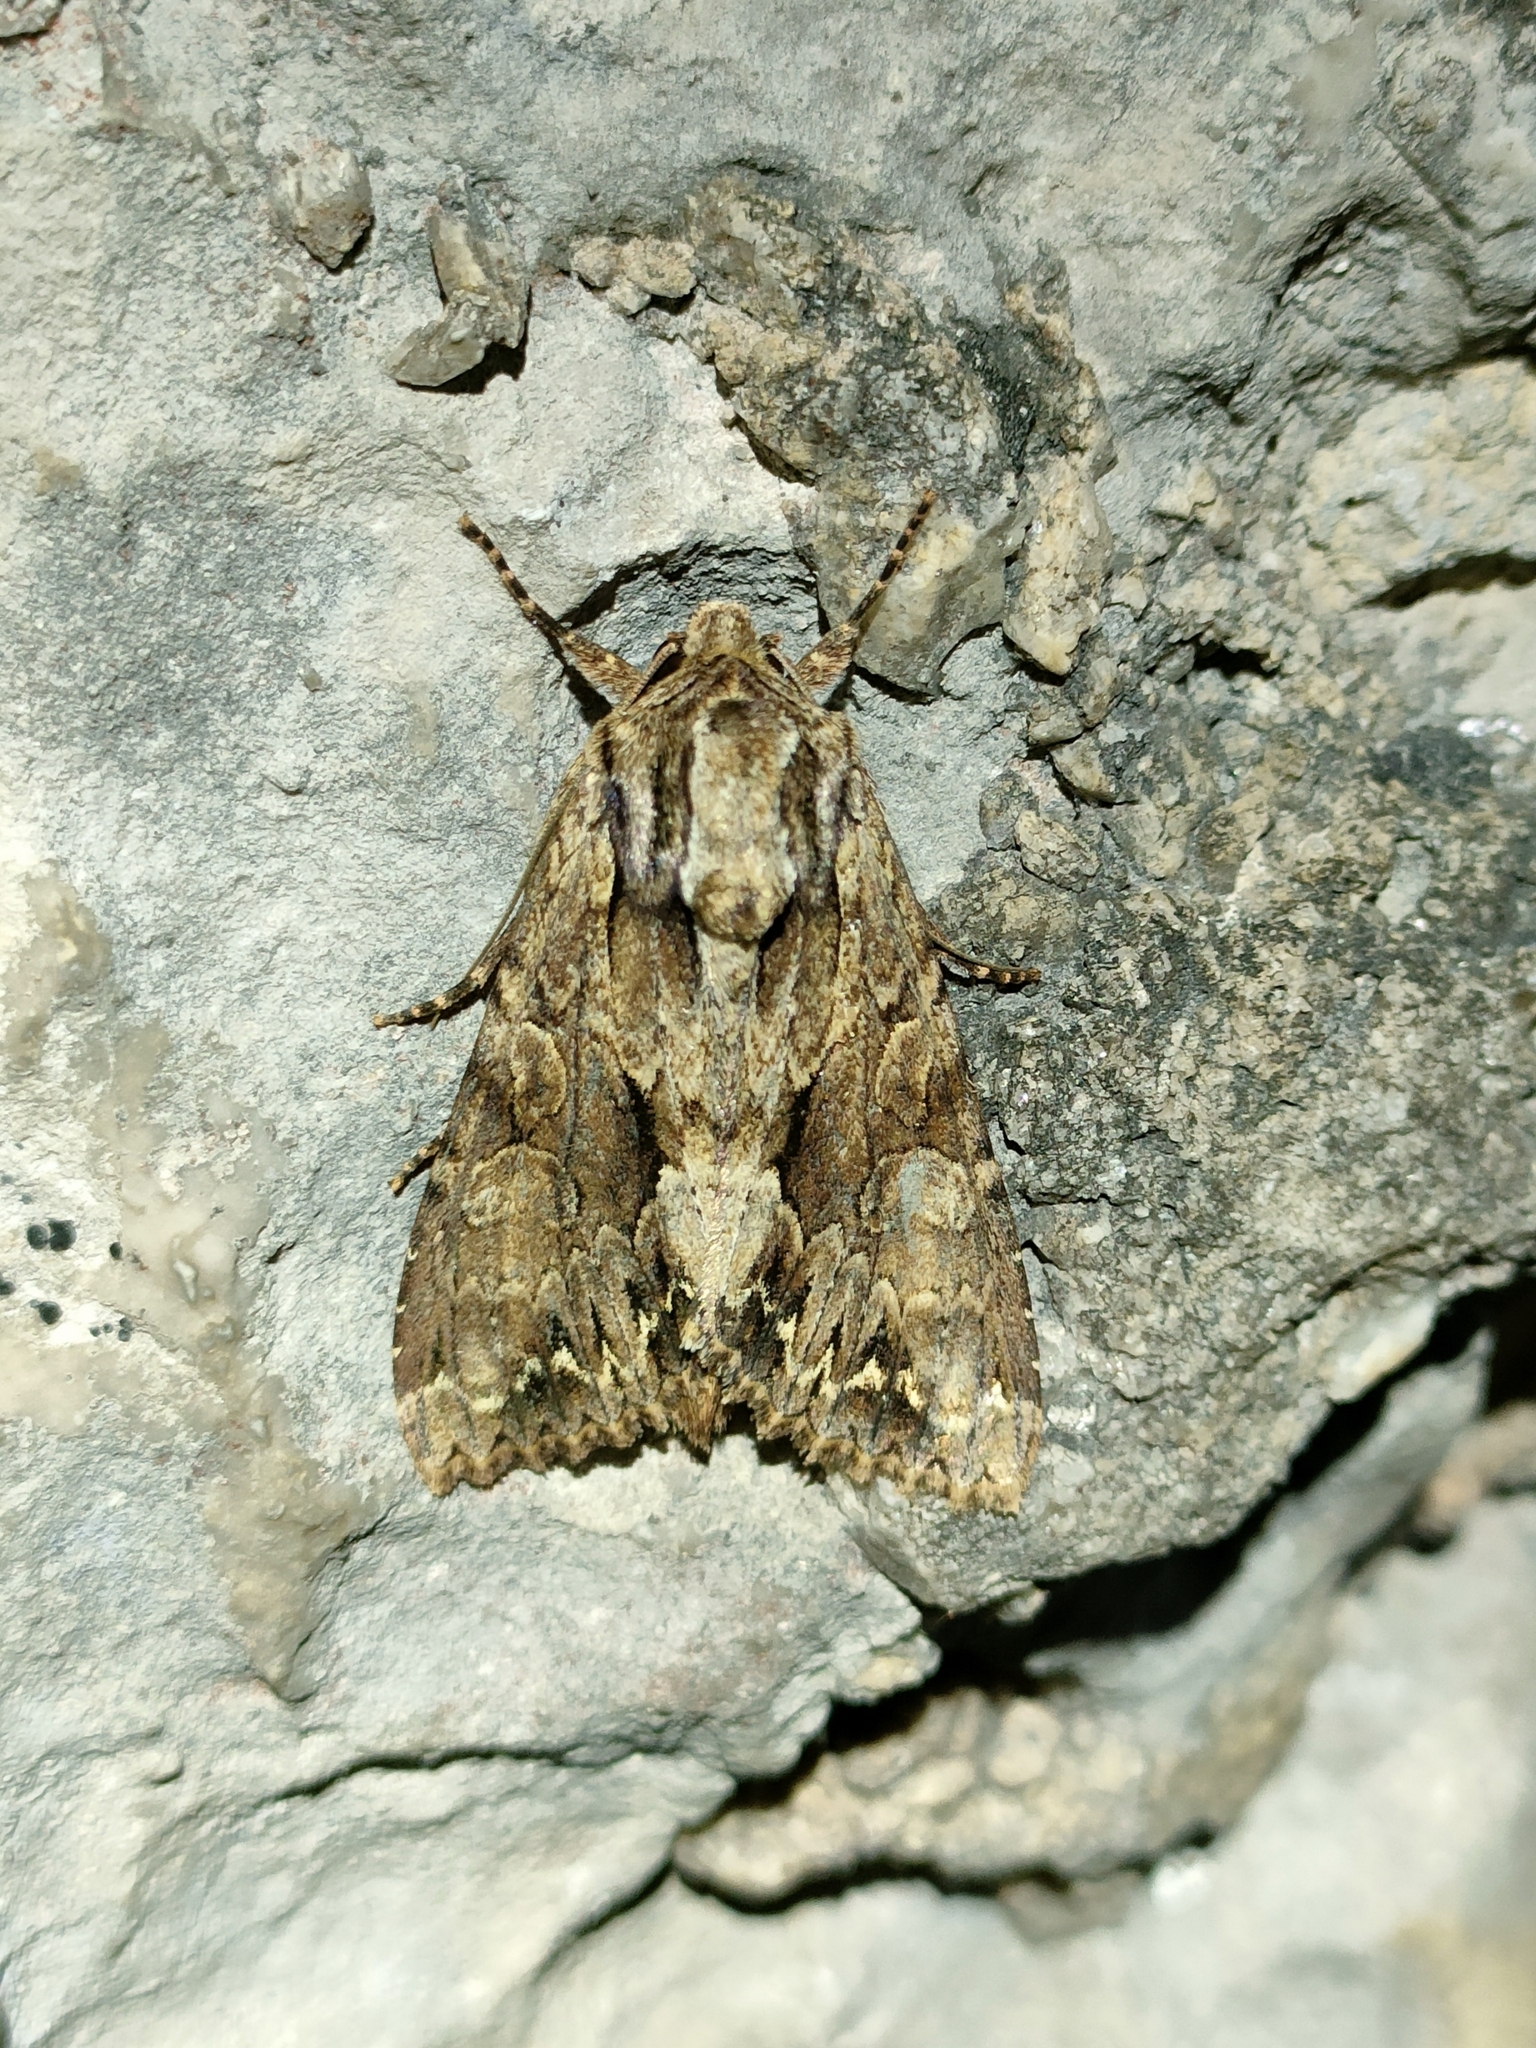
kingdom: Animalia
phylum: Arthropoda
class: Insecta
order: Lepidoptera
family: Noctuidae
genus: Apamea
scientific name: Apamea monoglypha
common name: Dark arches
